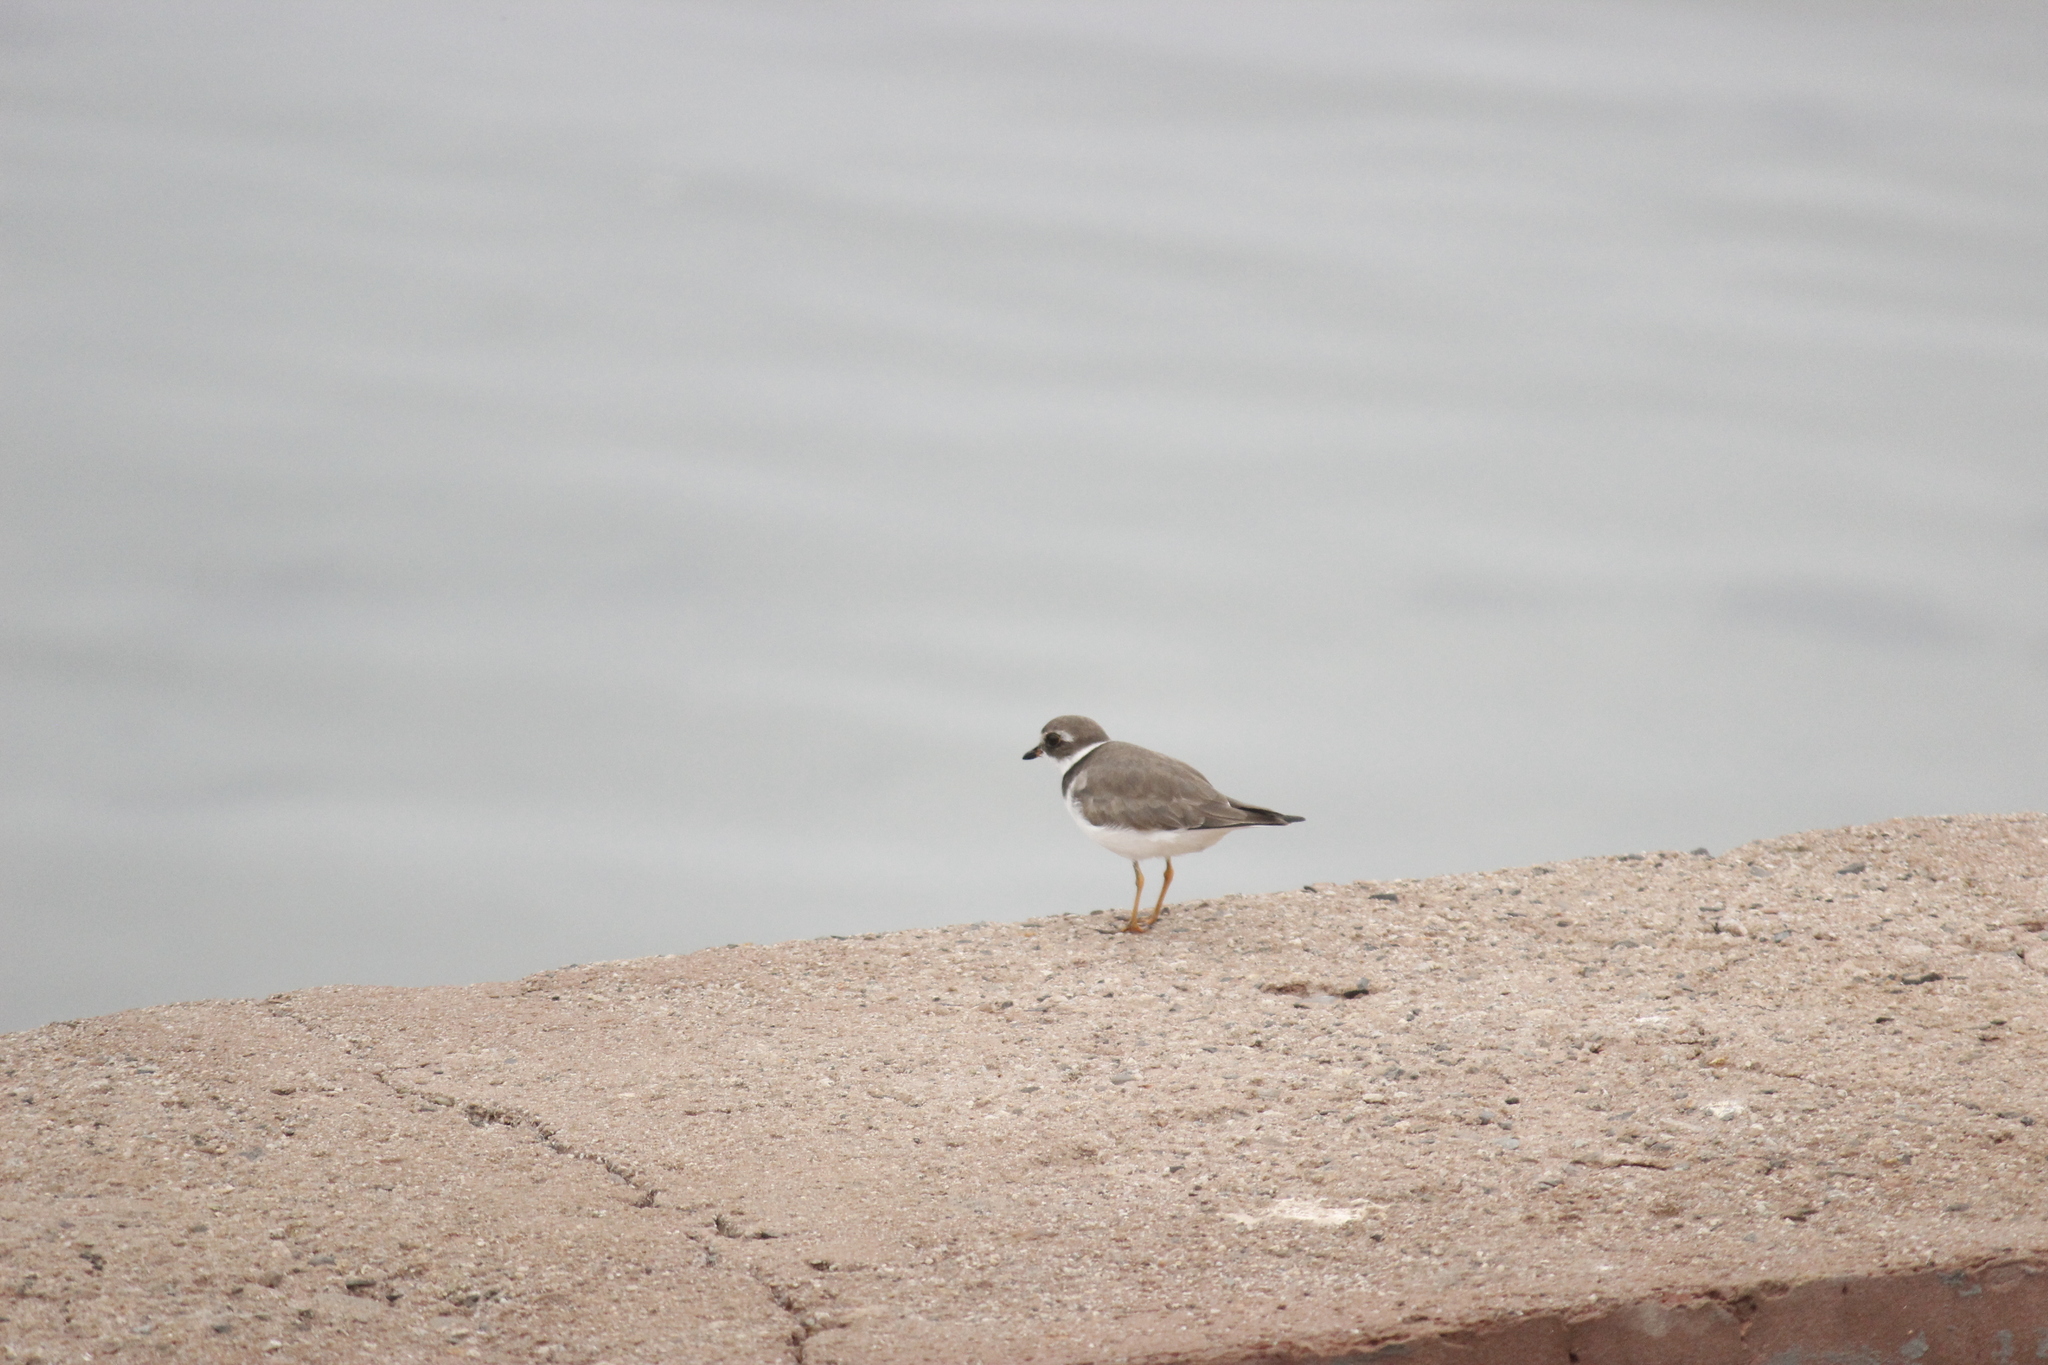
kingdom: Animalia
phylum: Chordata
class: Aves
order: Charadriiformes
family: Charadriidae
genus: Charadrius
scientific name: Charadrius semipalmatus
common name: Semipalmated plover
